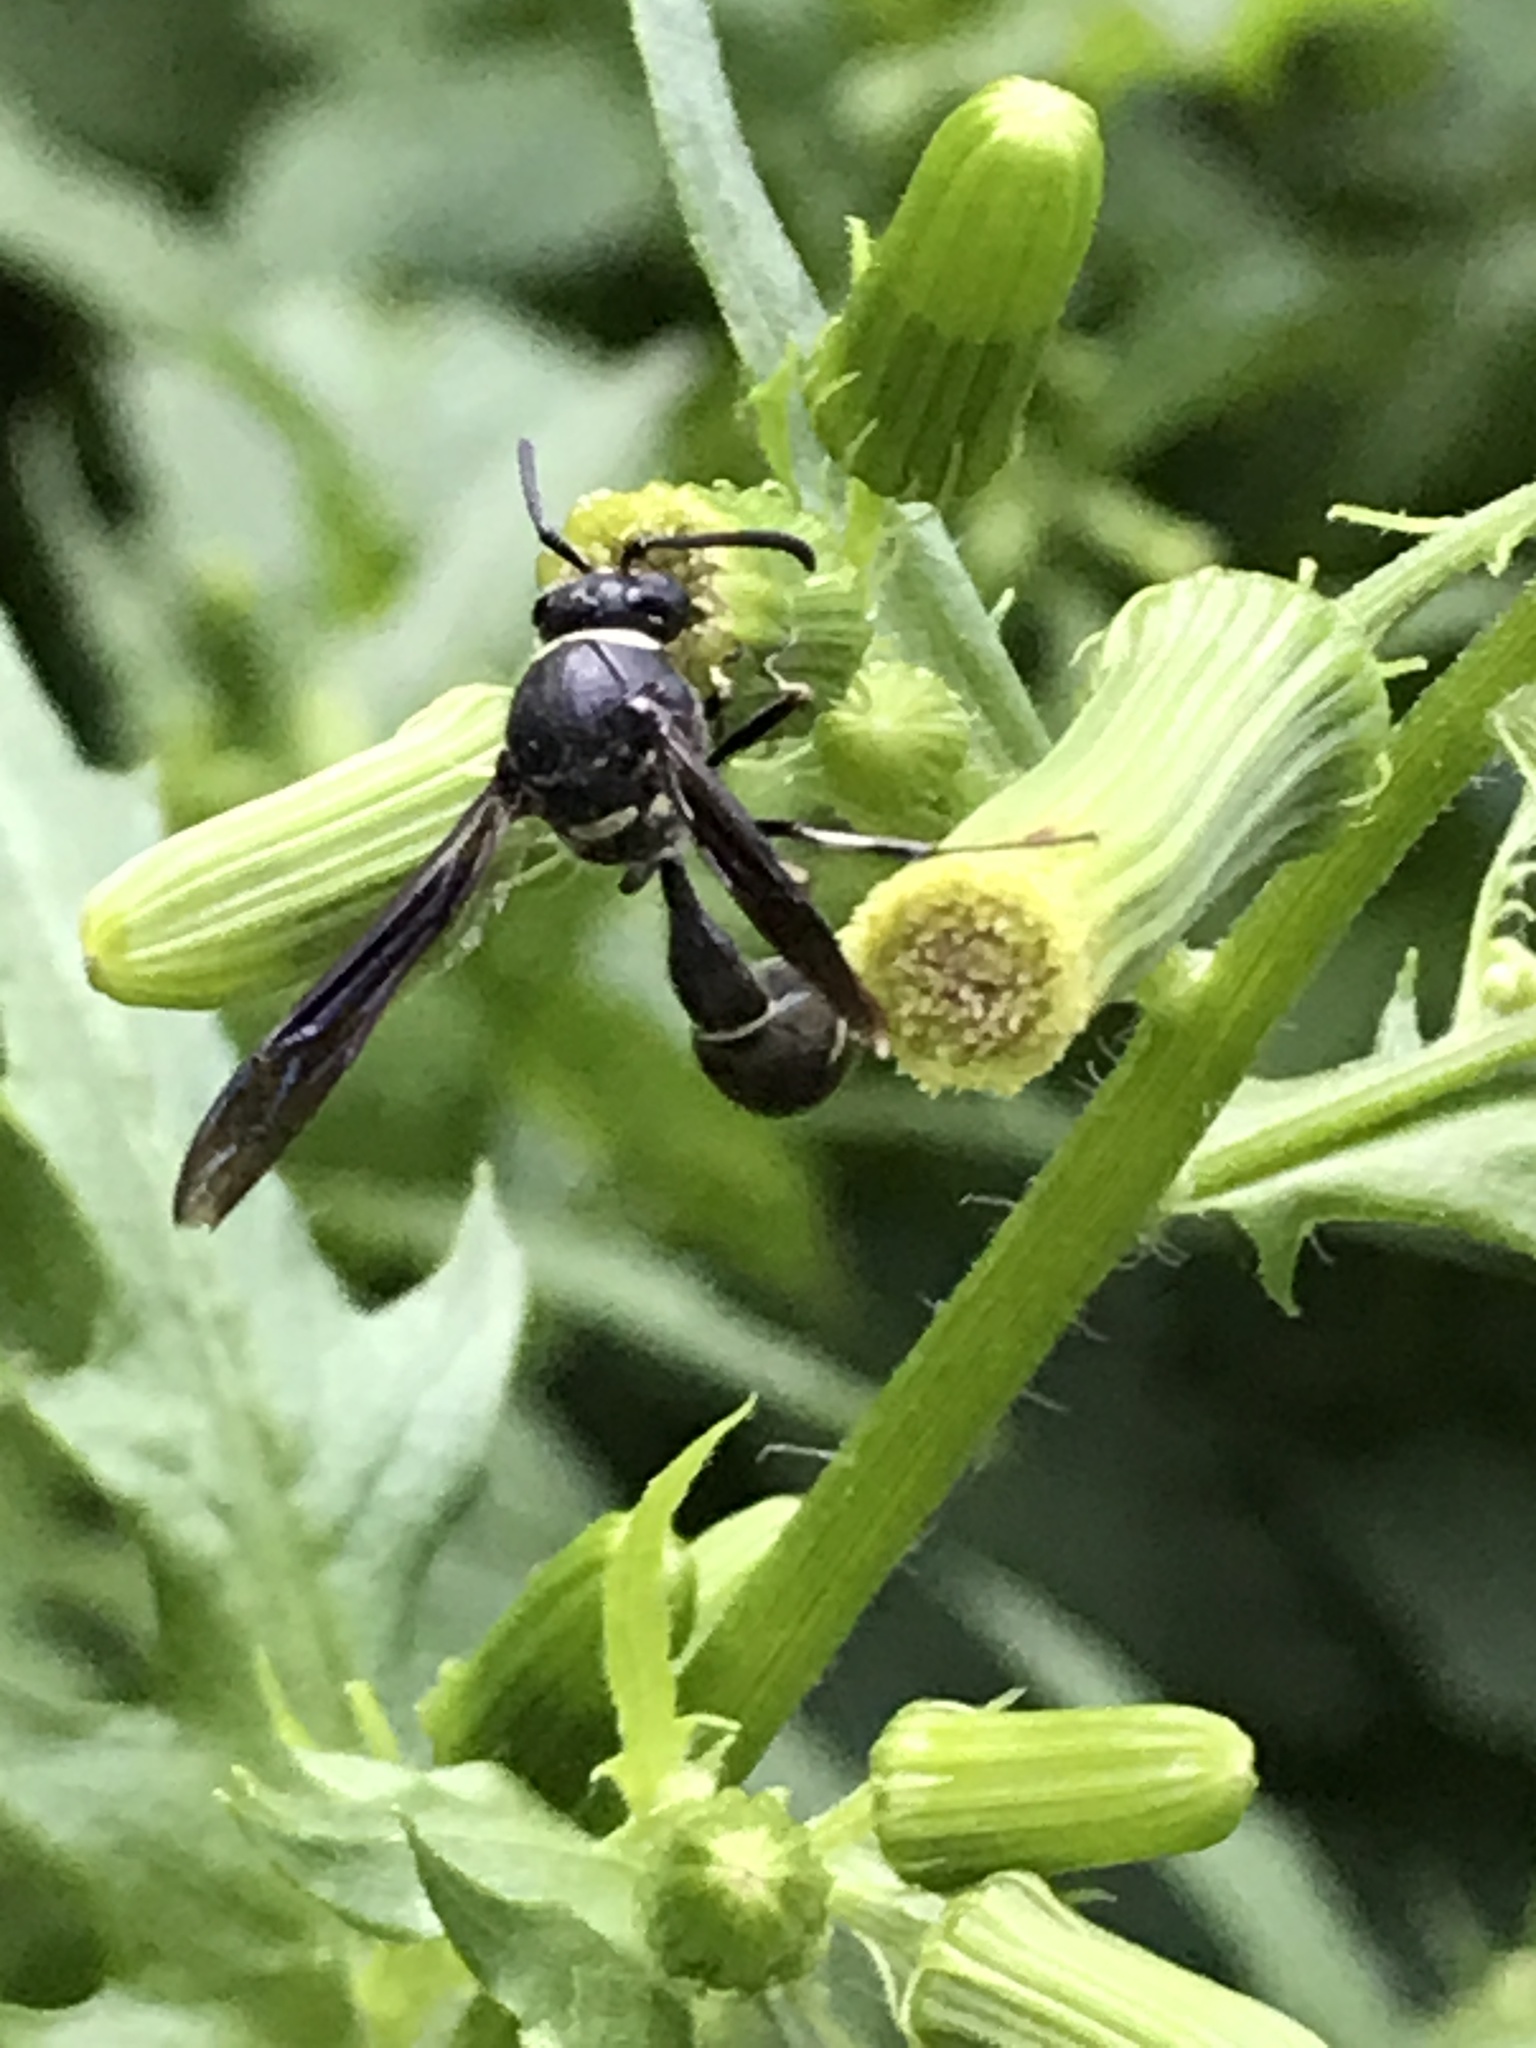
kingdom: Animalia
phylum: Arthropoda
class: Insecta
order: Hymenoptera
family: Vespidae
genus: Eumenes
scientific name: Eumenes fraternus
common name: Fraternal potter wasp
